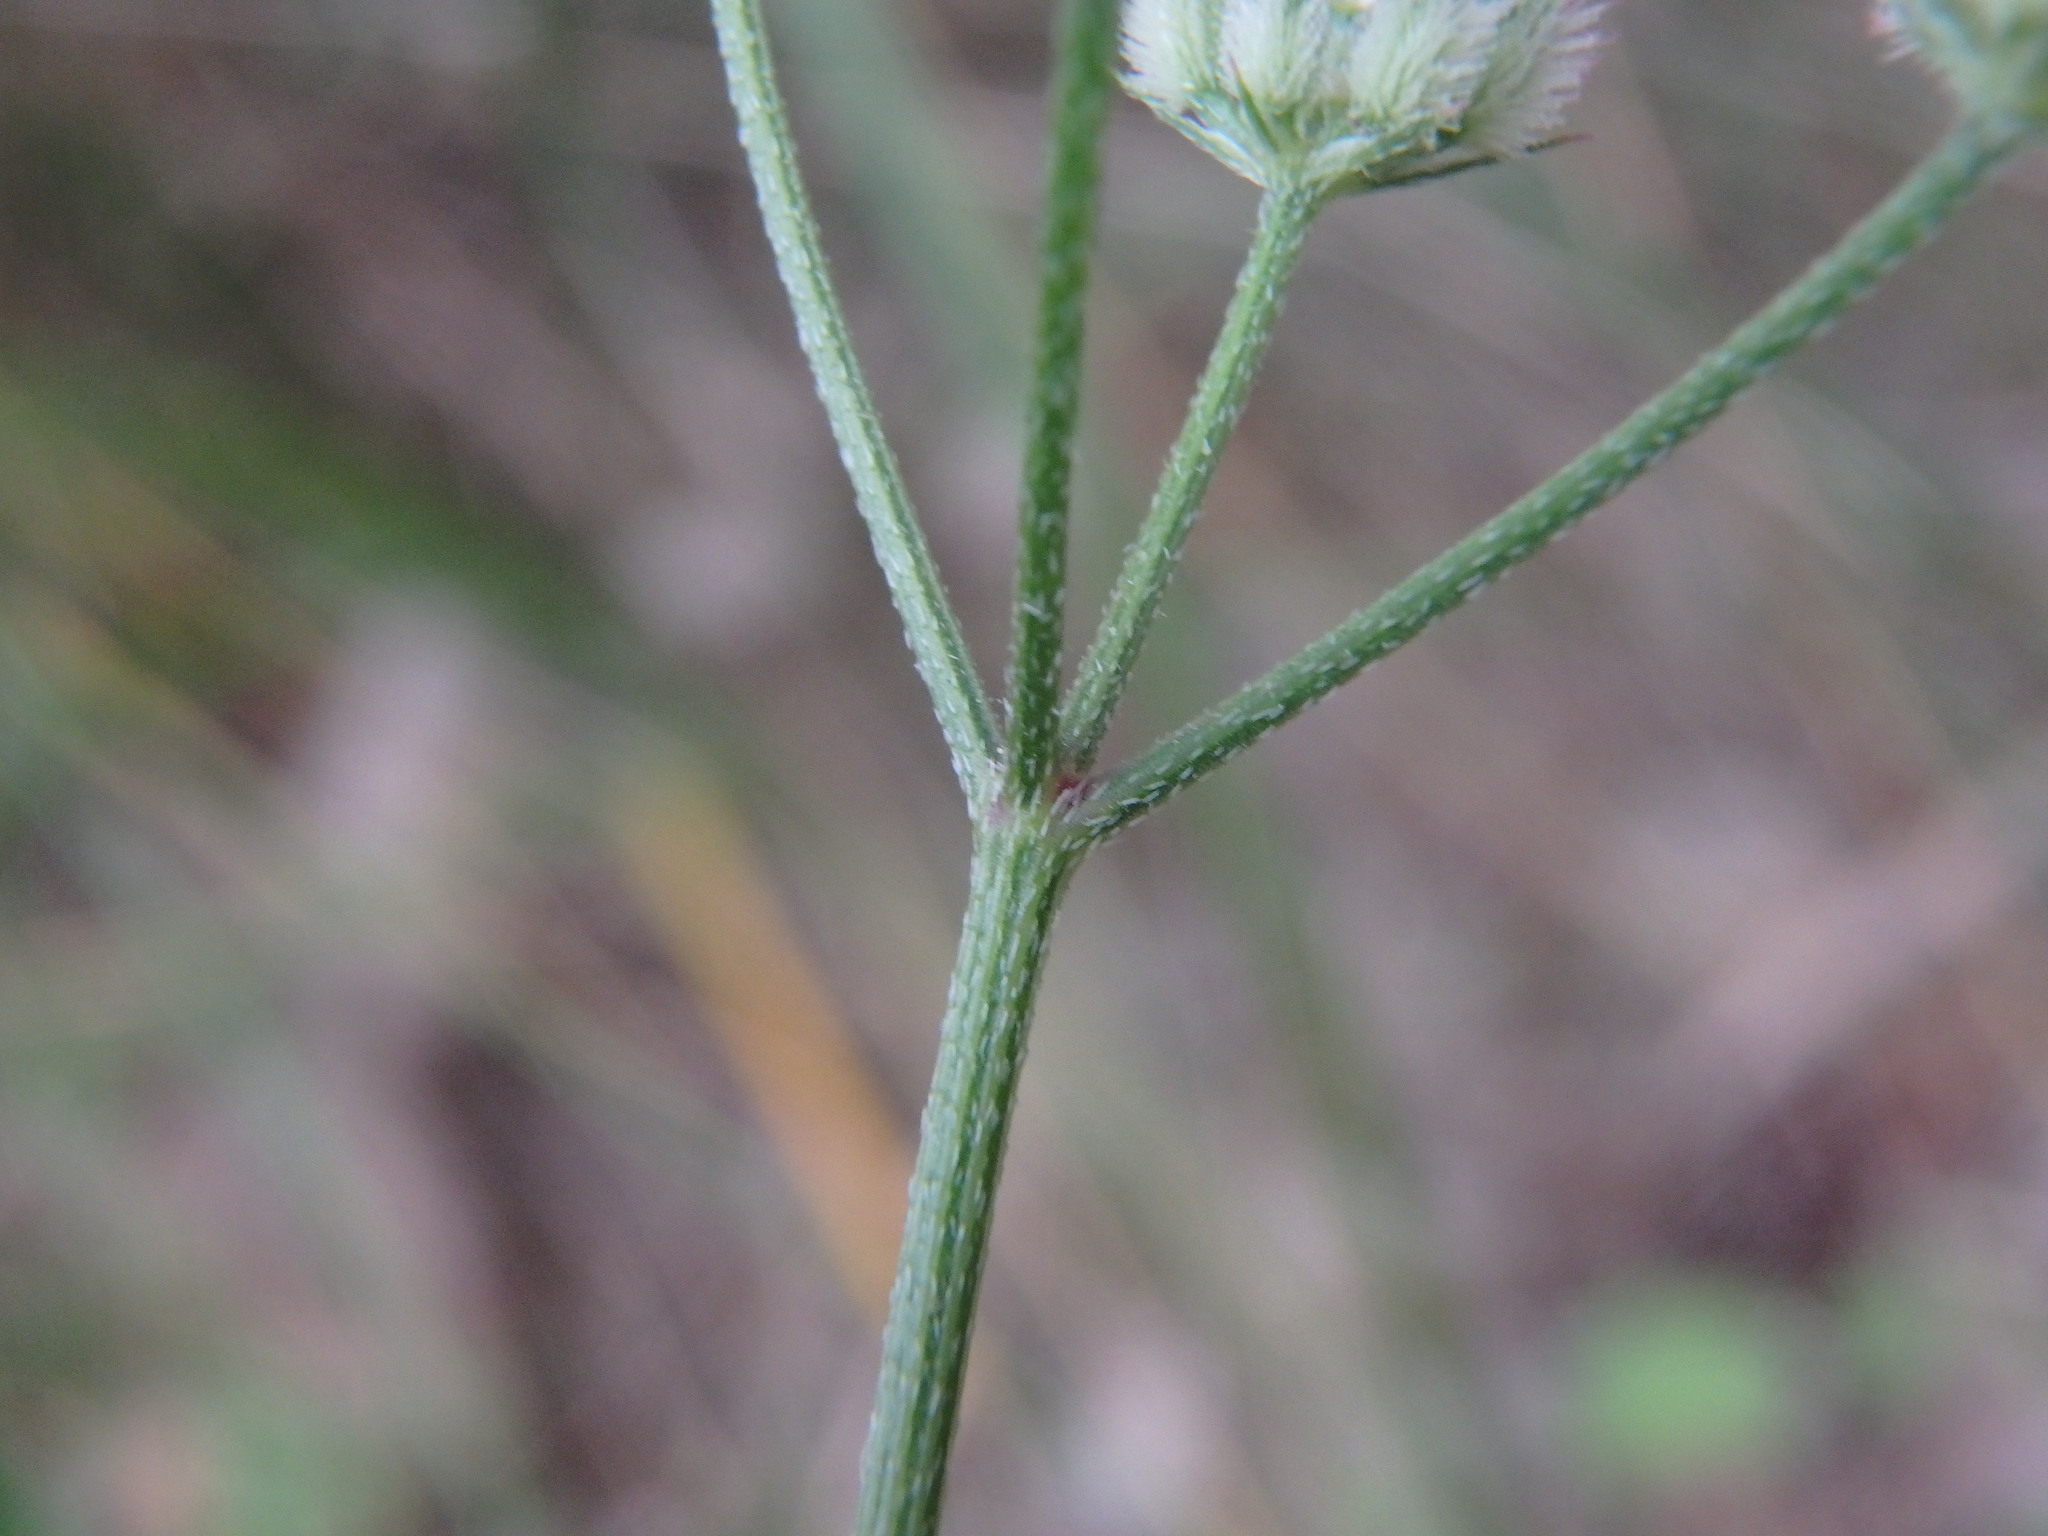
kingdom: Plantae
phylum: Tracheophyta
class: Magnoliopsida
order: Apiales
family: Apiaceae
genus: Torilis
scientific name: Torilis africana
